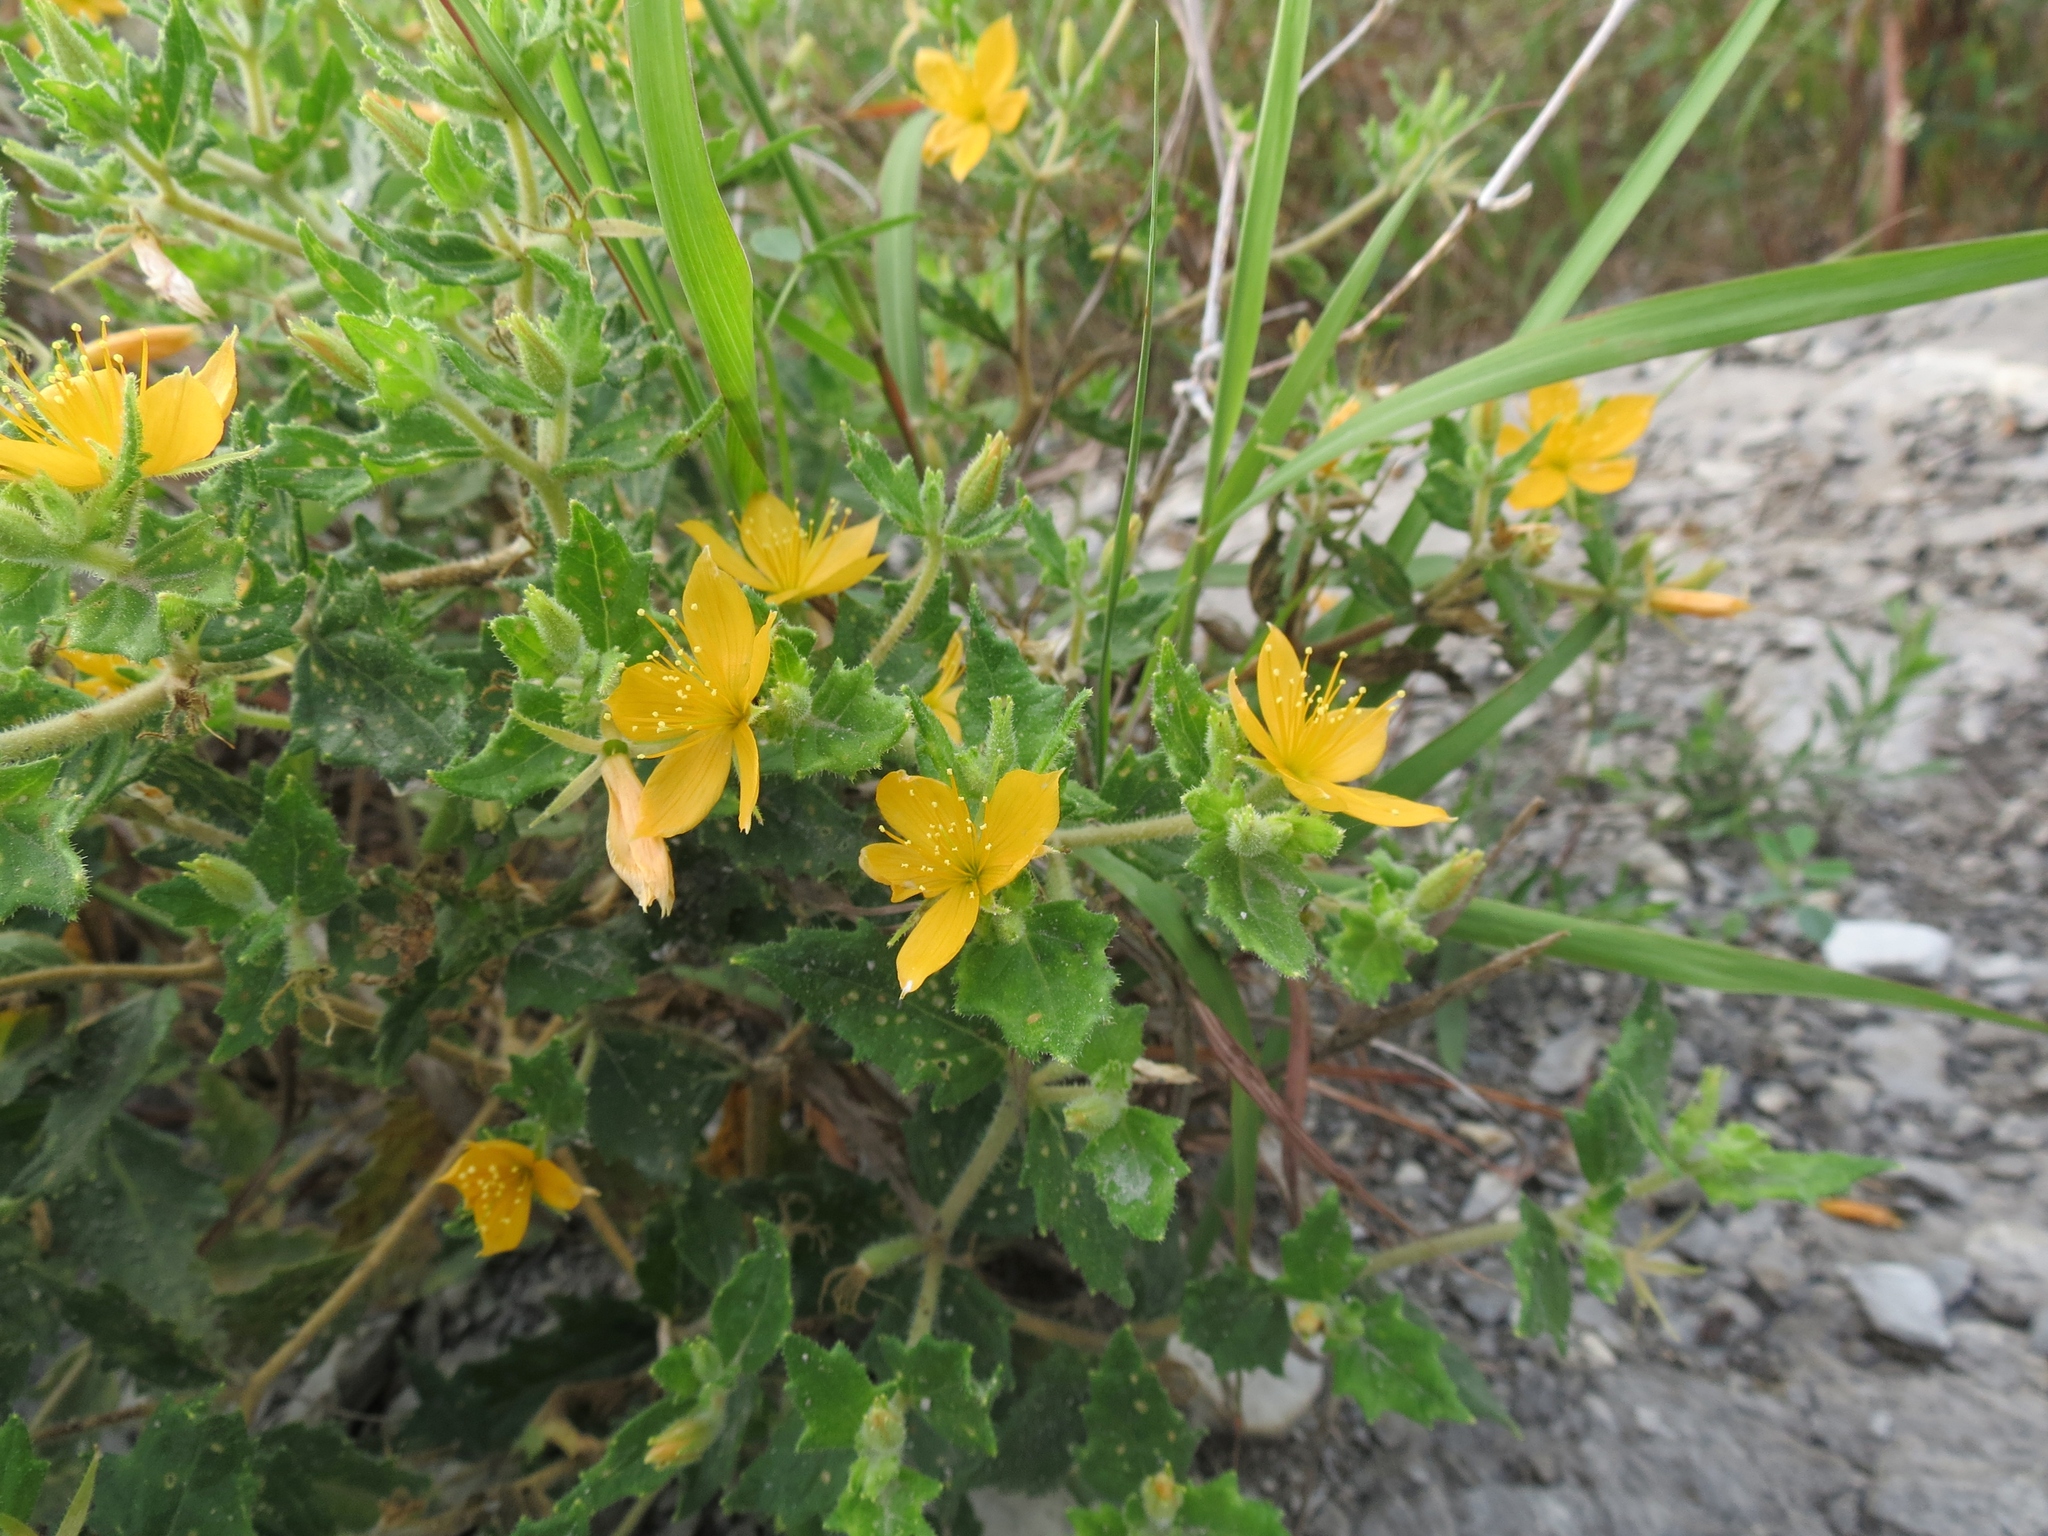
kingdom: Plantae
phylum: Tracheophyta
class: Magnoliopsida
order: Cornales
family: Loasaceae
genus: Mentzelia
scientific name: Mentzelia oligosperma
